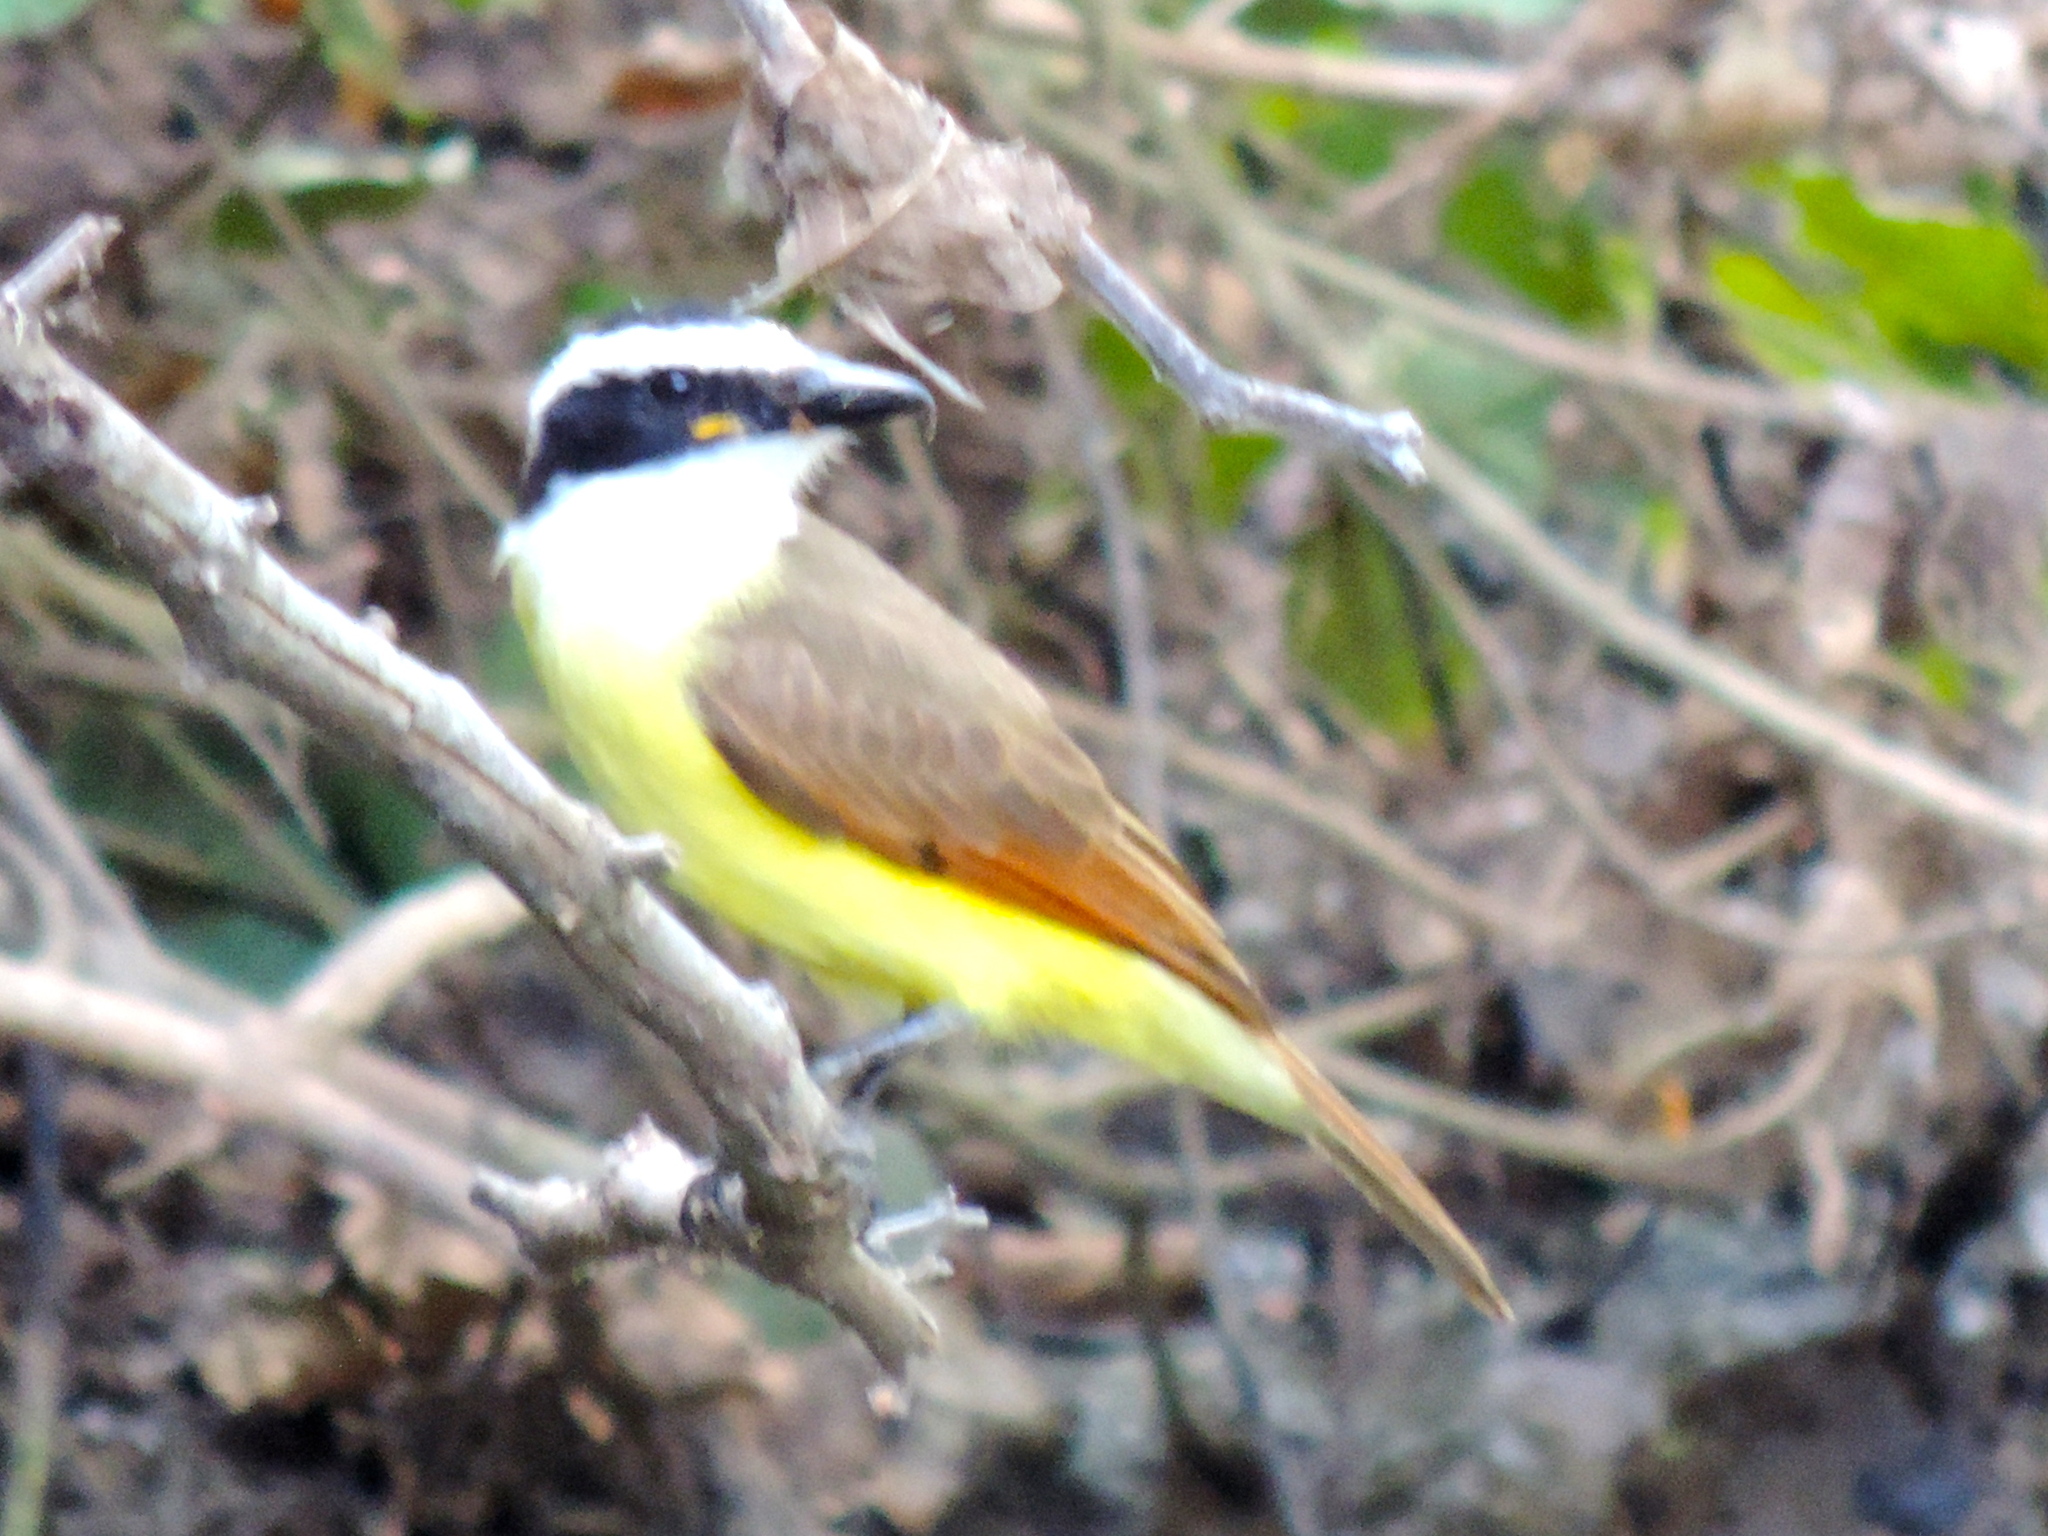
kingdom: Animalia
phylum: Chordata
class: Aves
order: Passeriformes
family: Tyrannidae
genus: Pitangus
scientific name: Pitangus sulphuratus
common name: Great kiskadee
